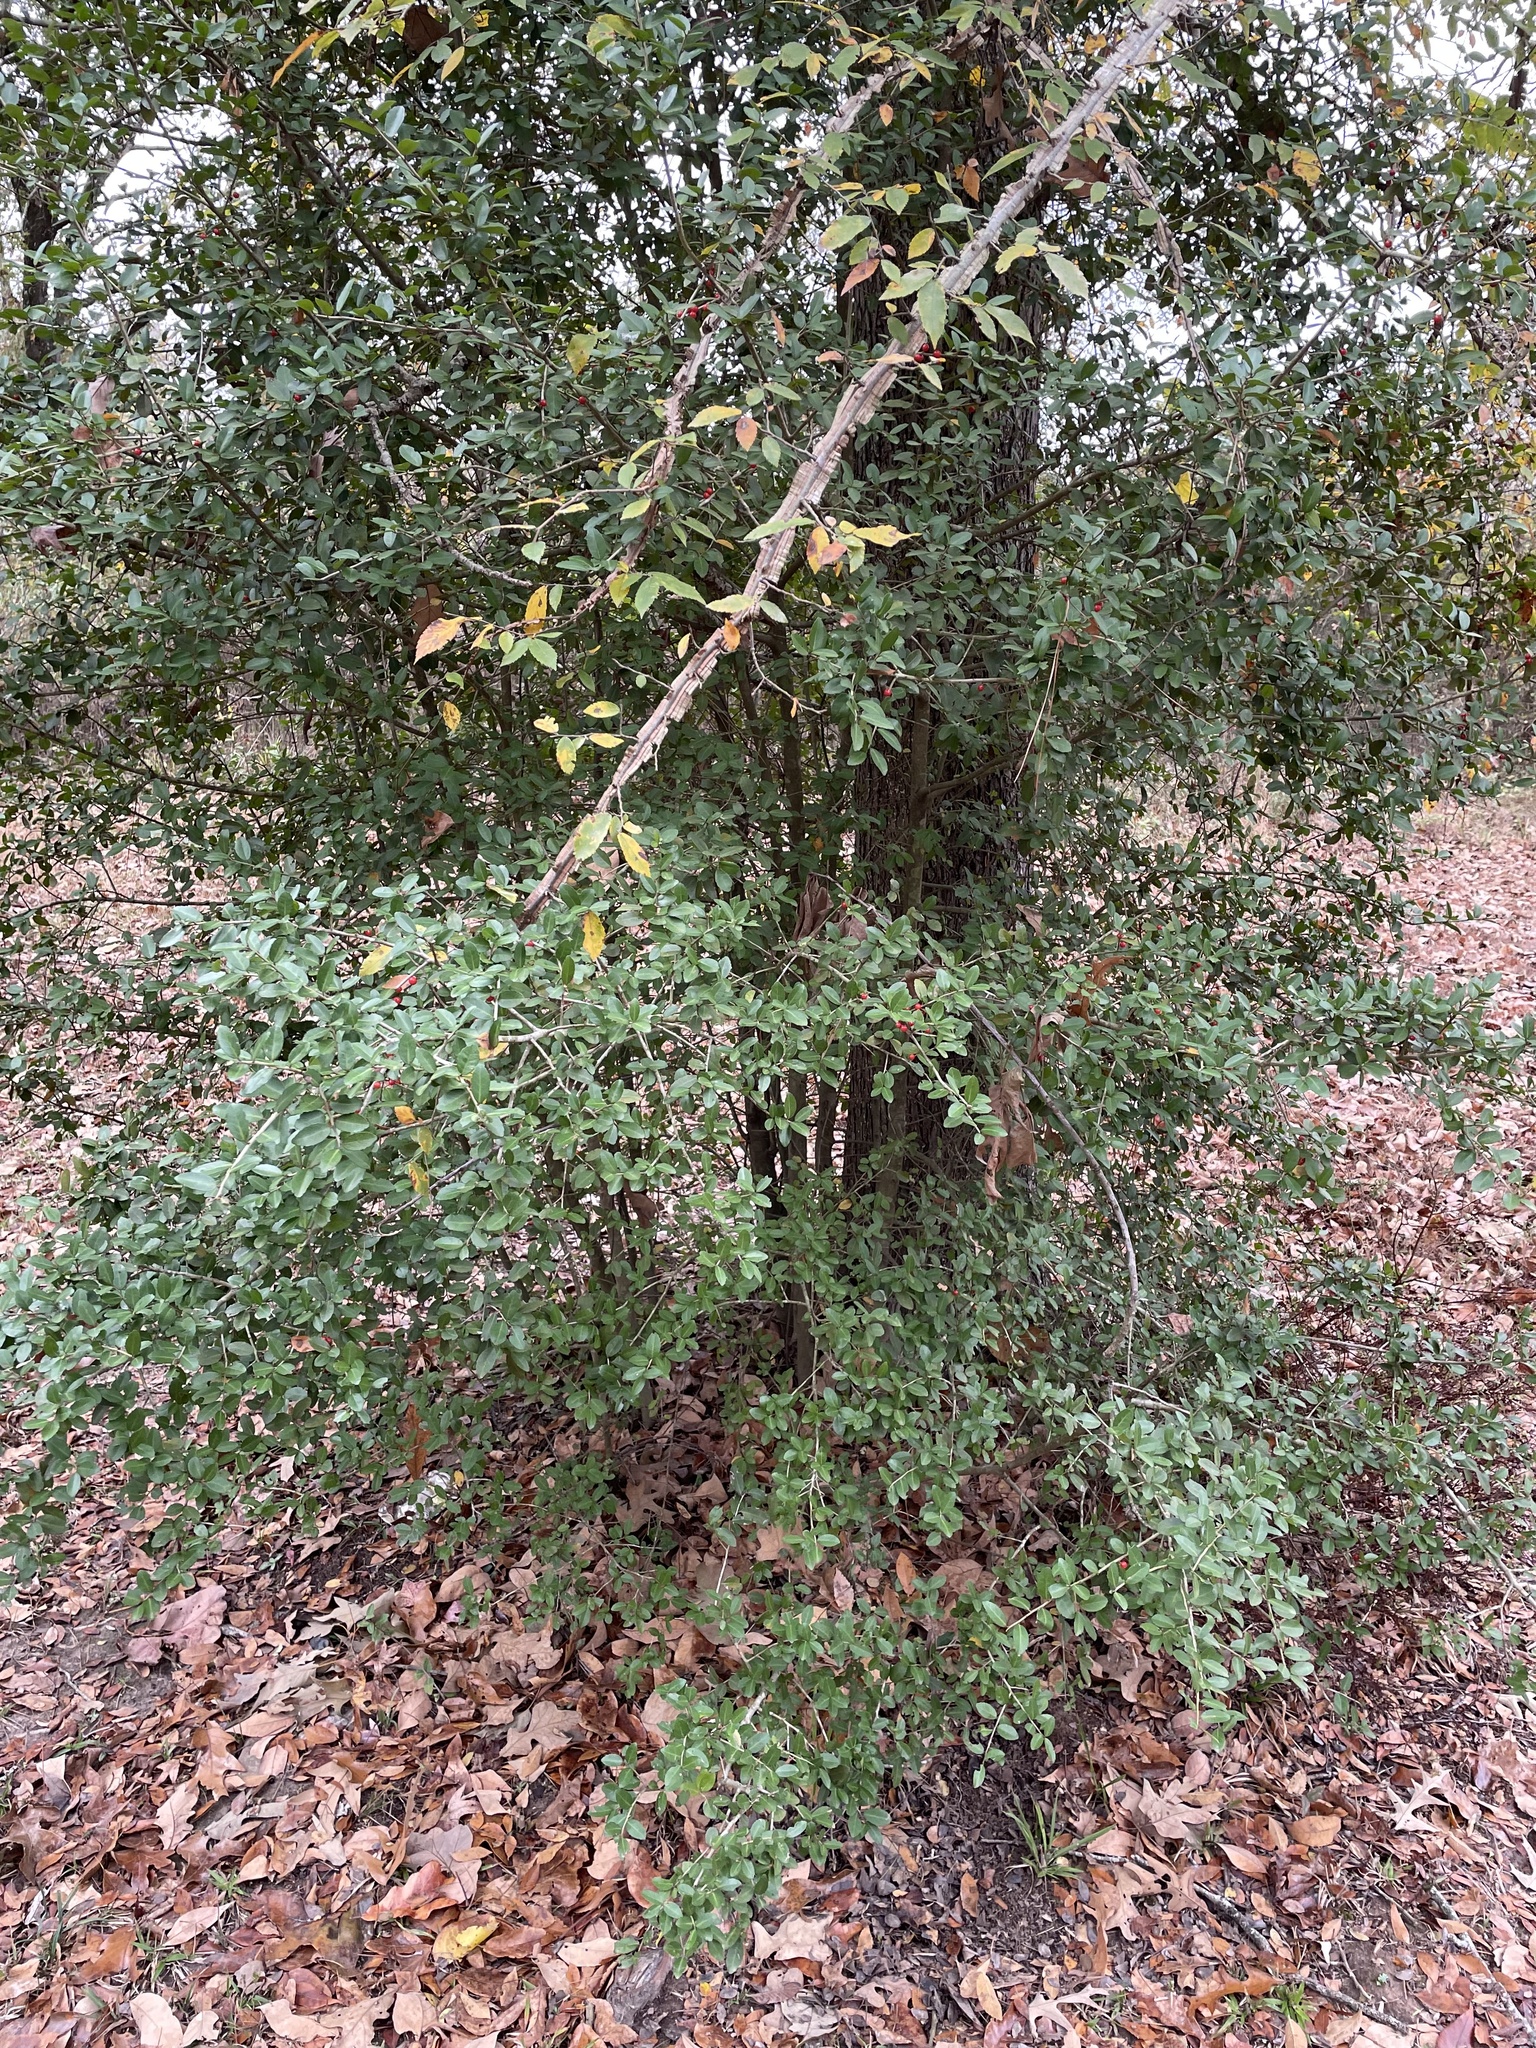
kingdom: Plantae
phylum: Tracheophyta
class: Magnoliopsida
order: Aquifoliales
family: Aquifoliaceae
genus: Ilex
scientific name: Ilex vomitoria
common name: Yaupon holly
